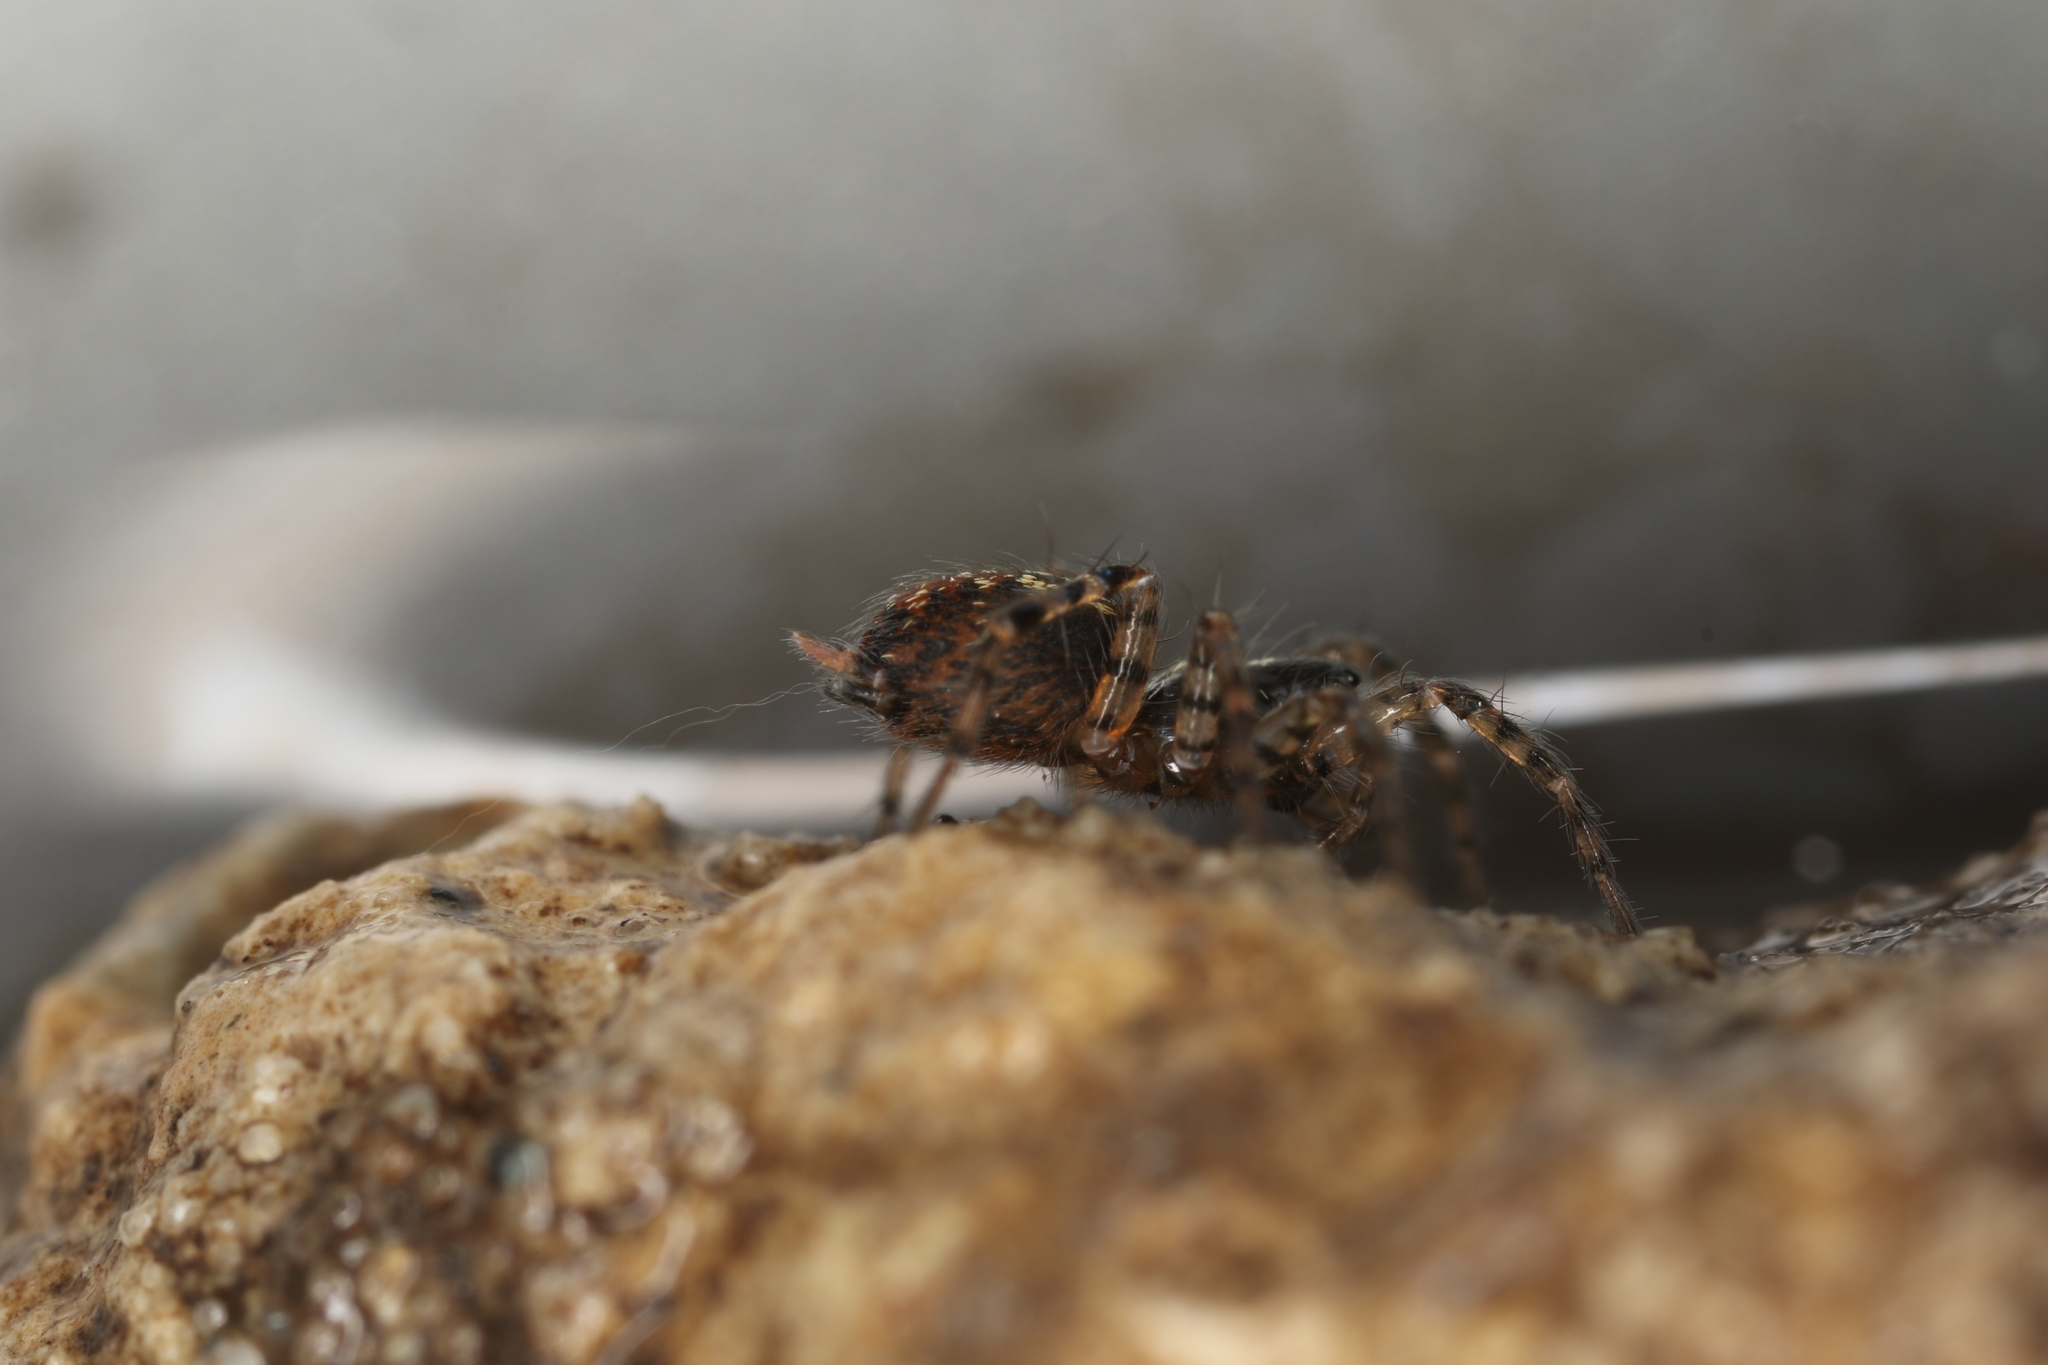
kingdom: Animalia
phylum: Arthropoda
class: Arachnida
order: Araneae
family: Agelenidae
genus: Textrix
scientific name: Textrix denticulata
